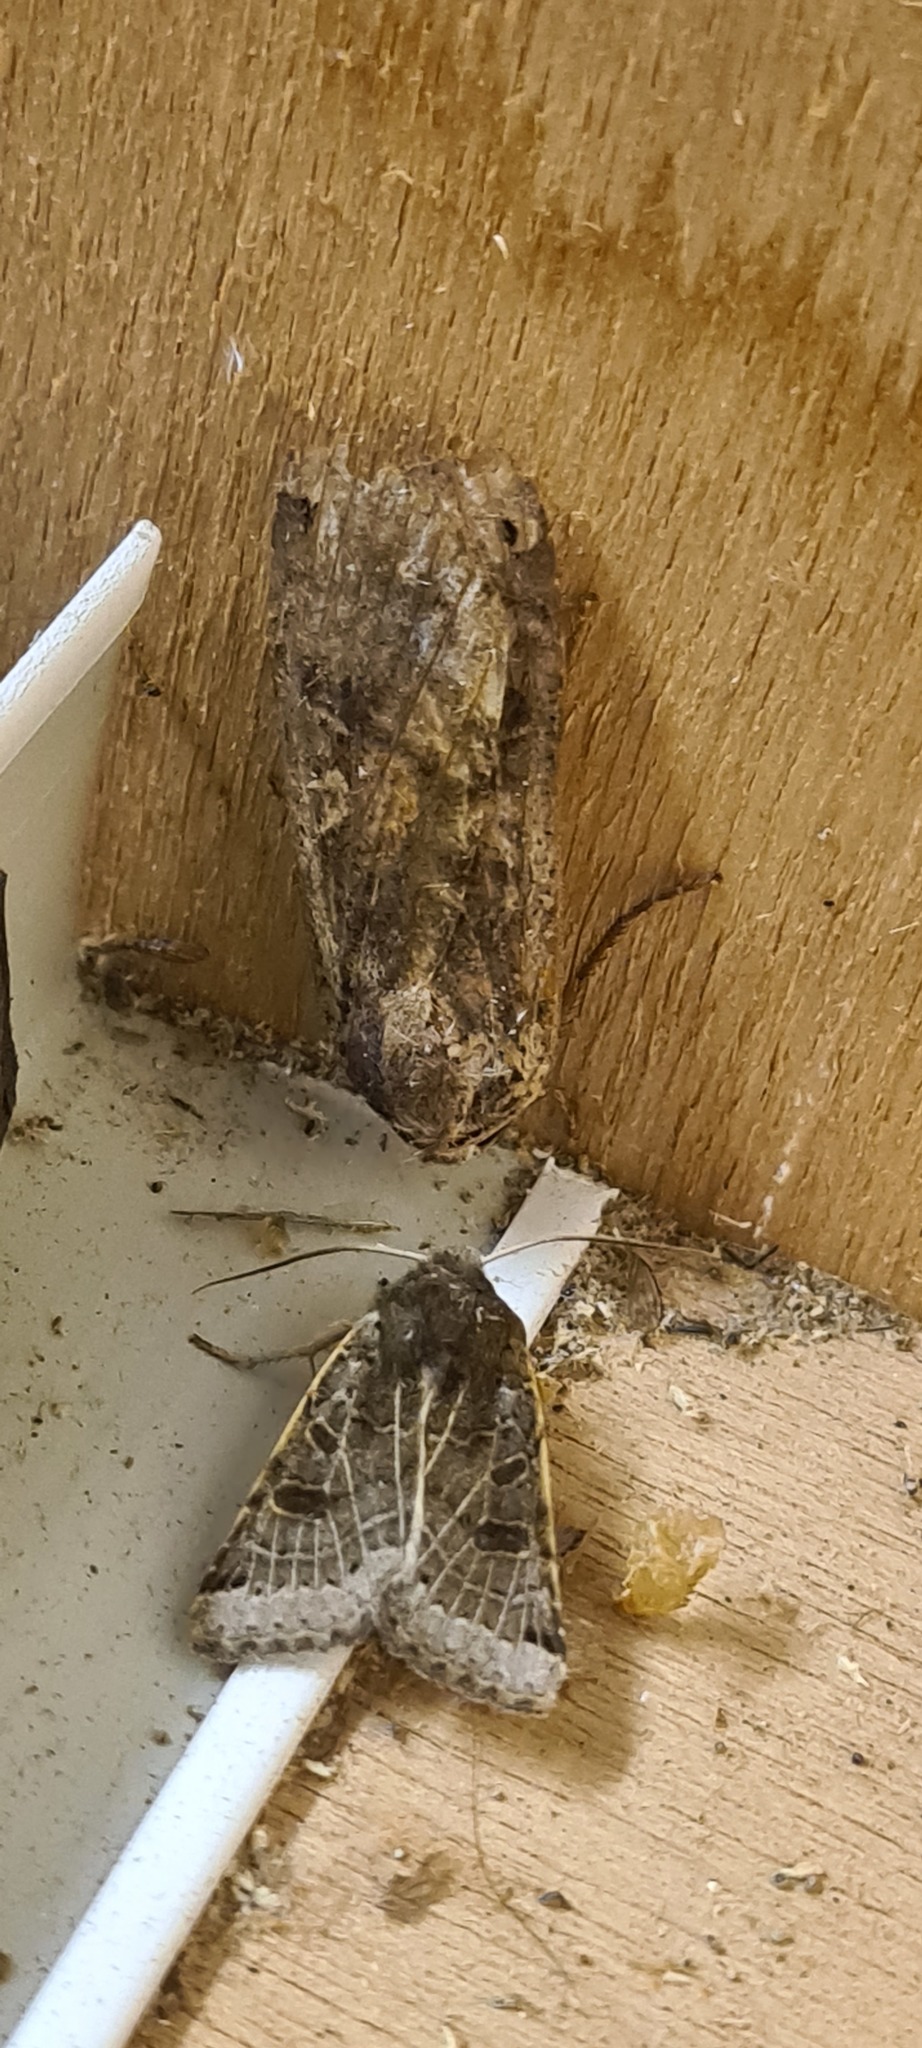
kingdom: Animalia
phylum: Arthropoda
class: Insecta
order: Lepidoptera
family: Noctuidae
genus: Noctua
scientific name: Noctua pronuba
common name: Large yellow underwing
